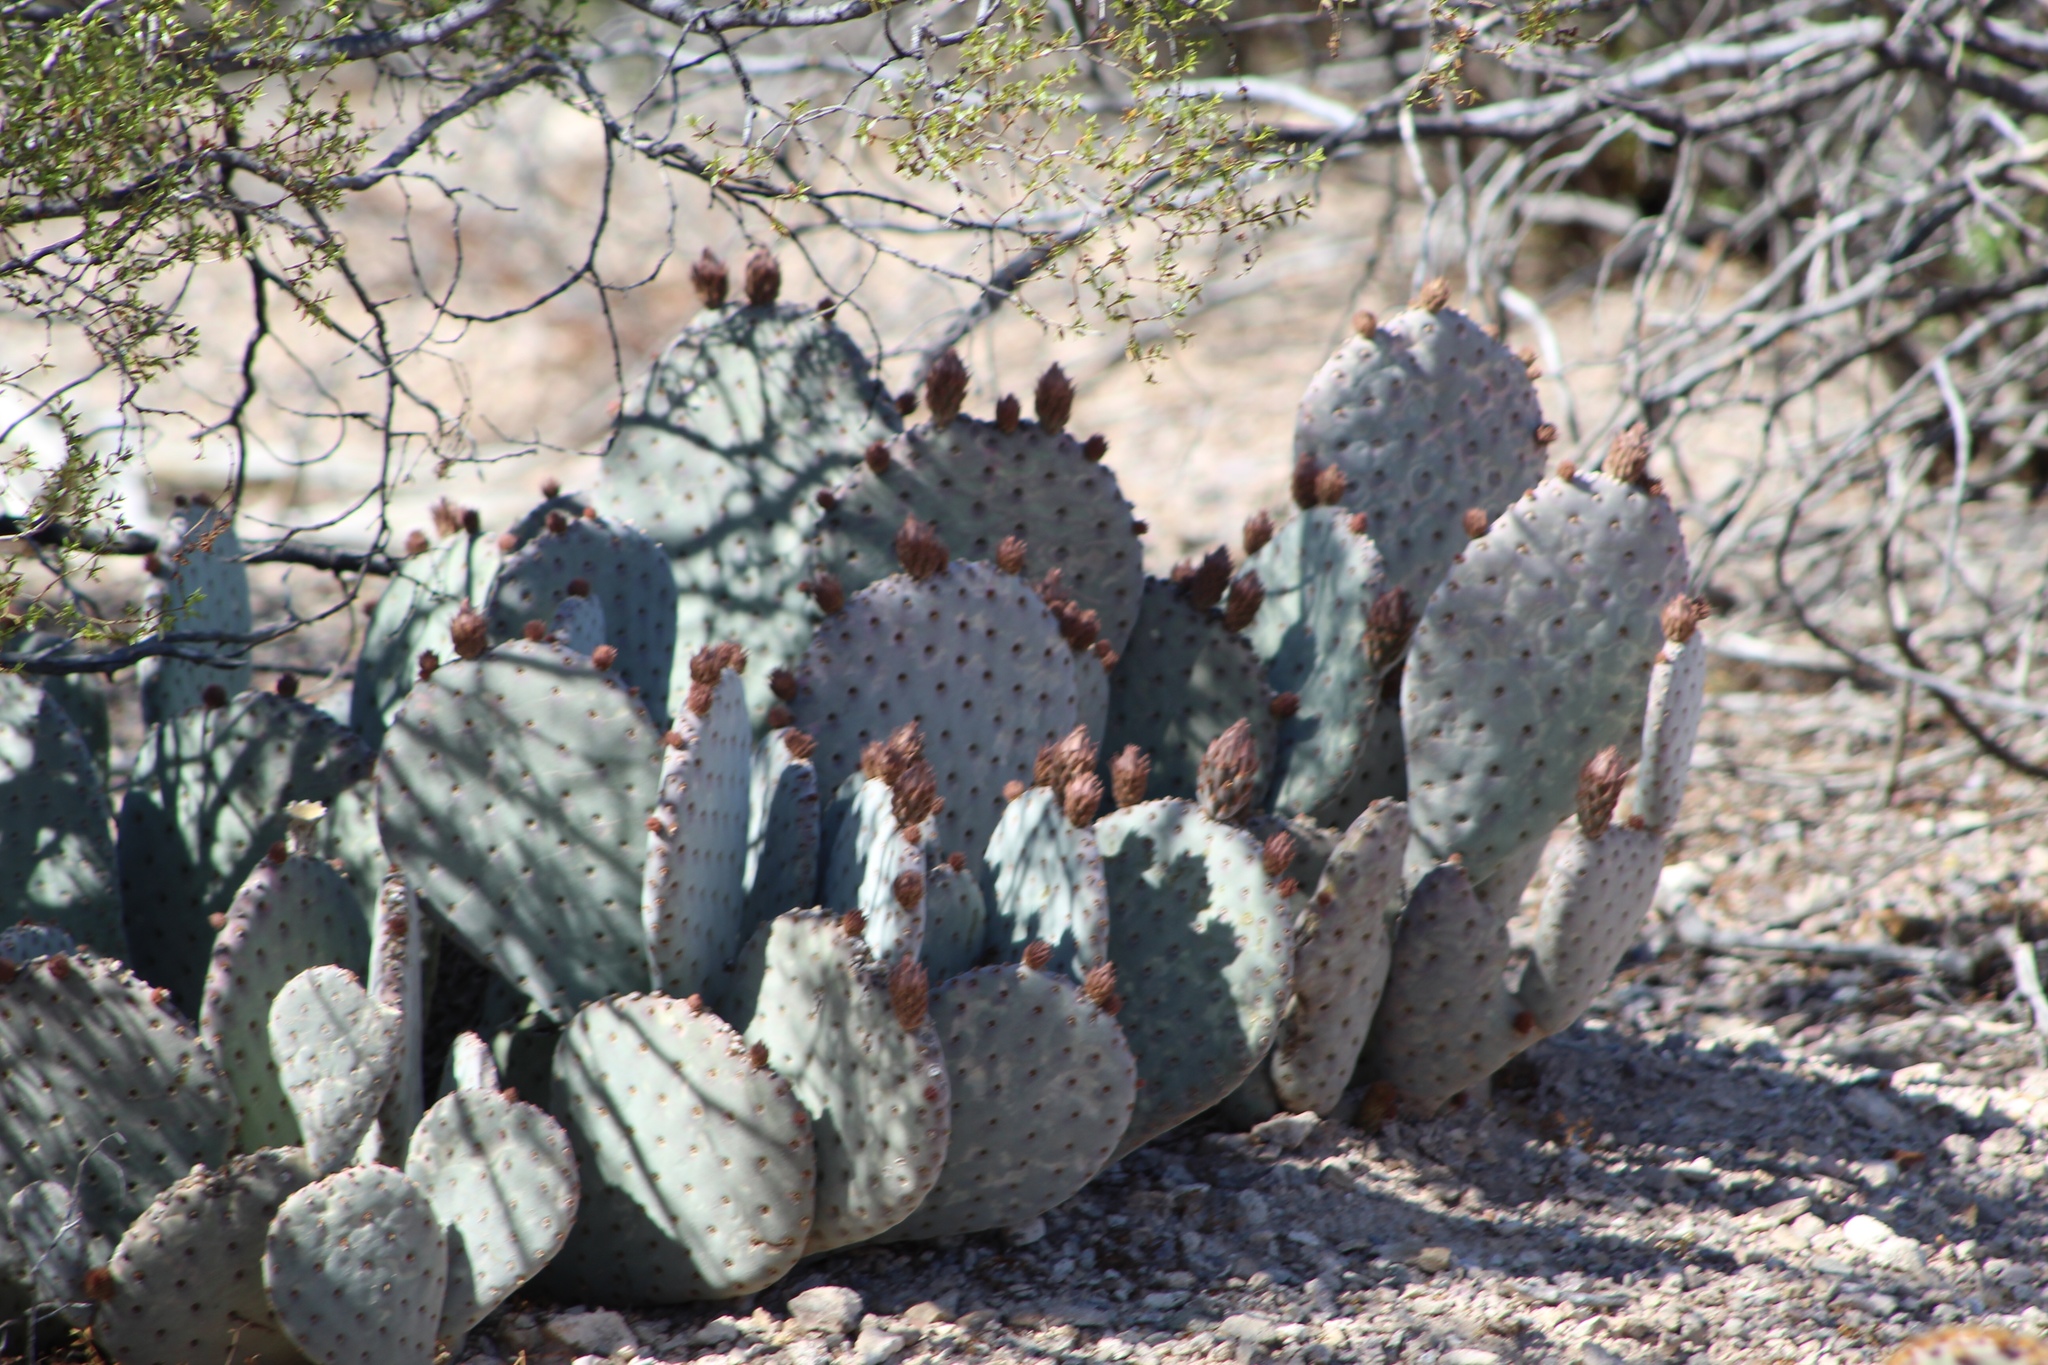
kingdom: Plantae
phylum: Tracheophyta
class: Magnoliopsida
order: Caryophyllales
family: Cactaceae
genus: Opuntia
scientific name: Opuntia basilaris
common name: Beavertail prickly-pear
